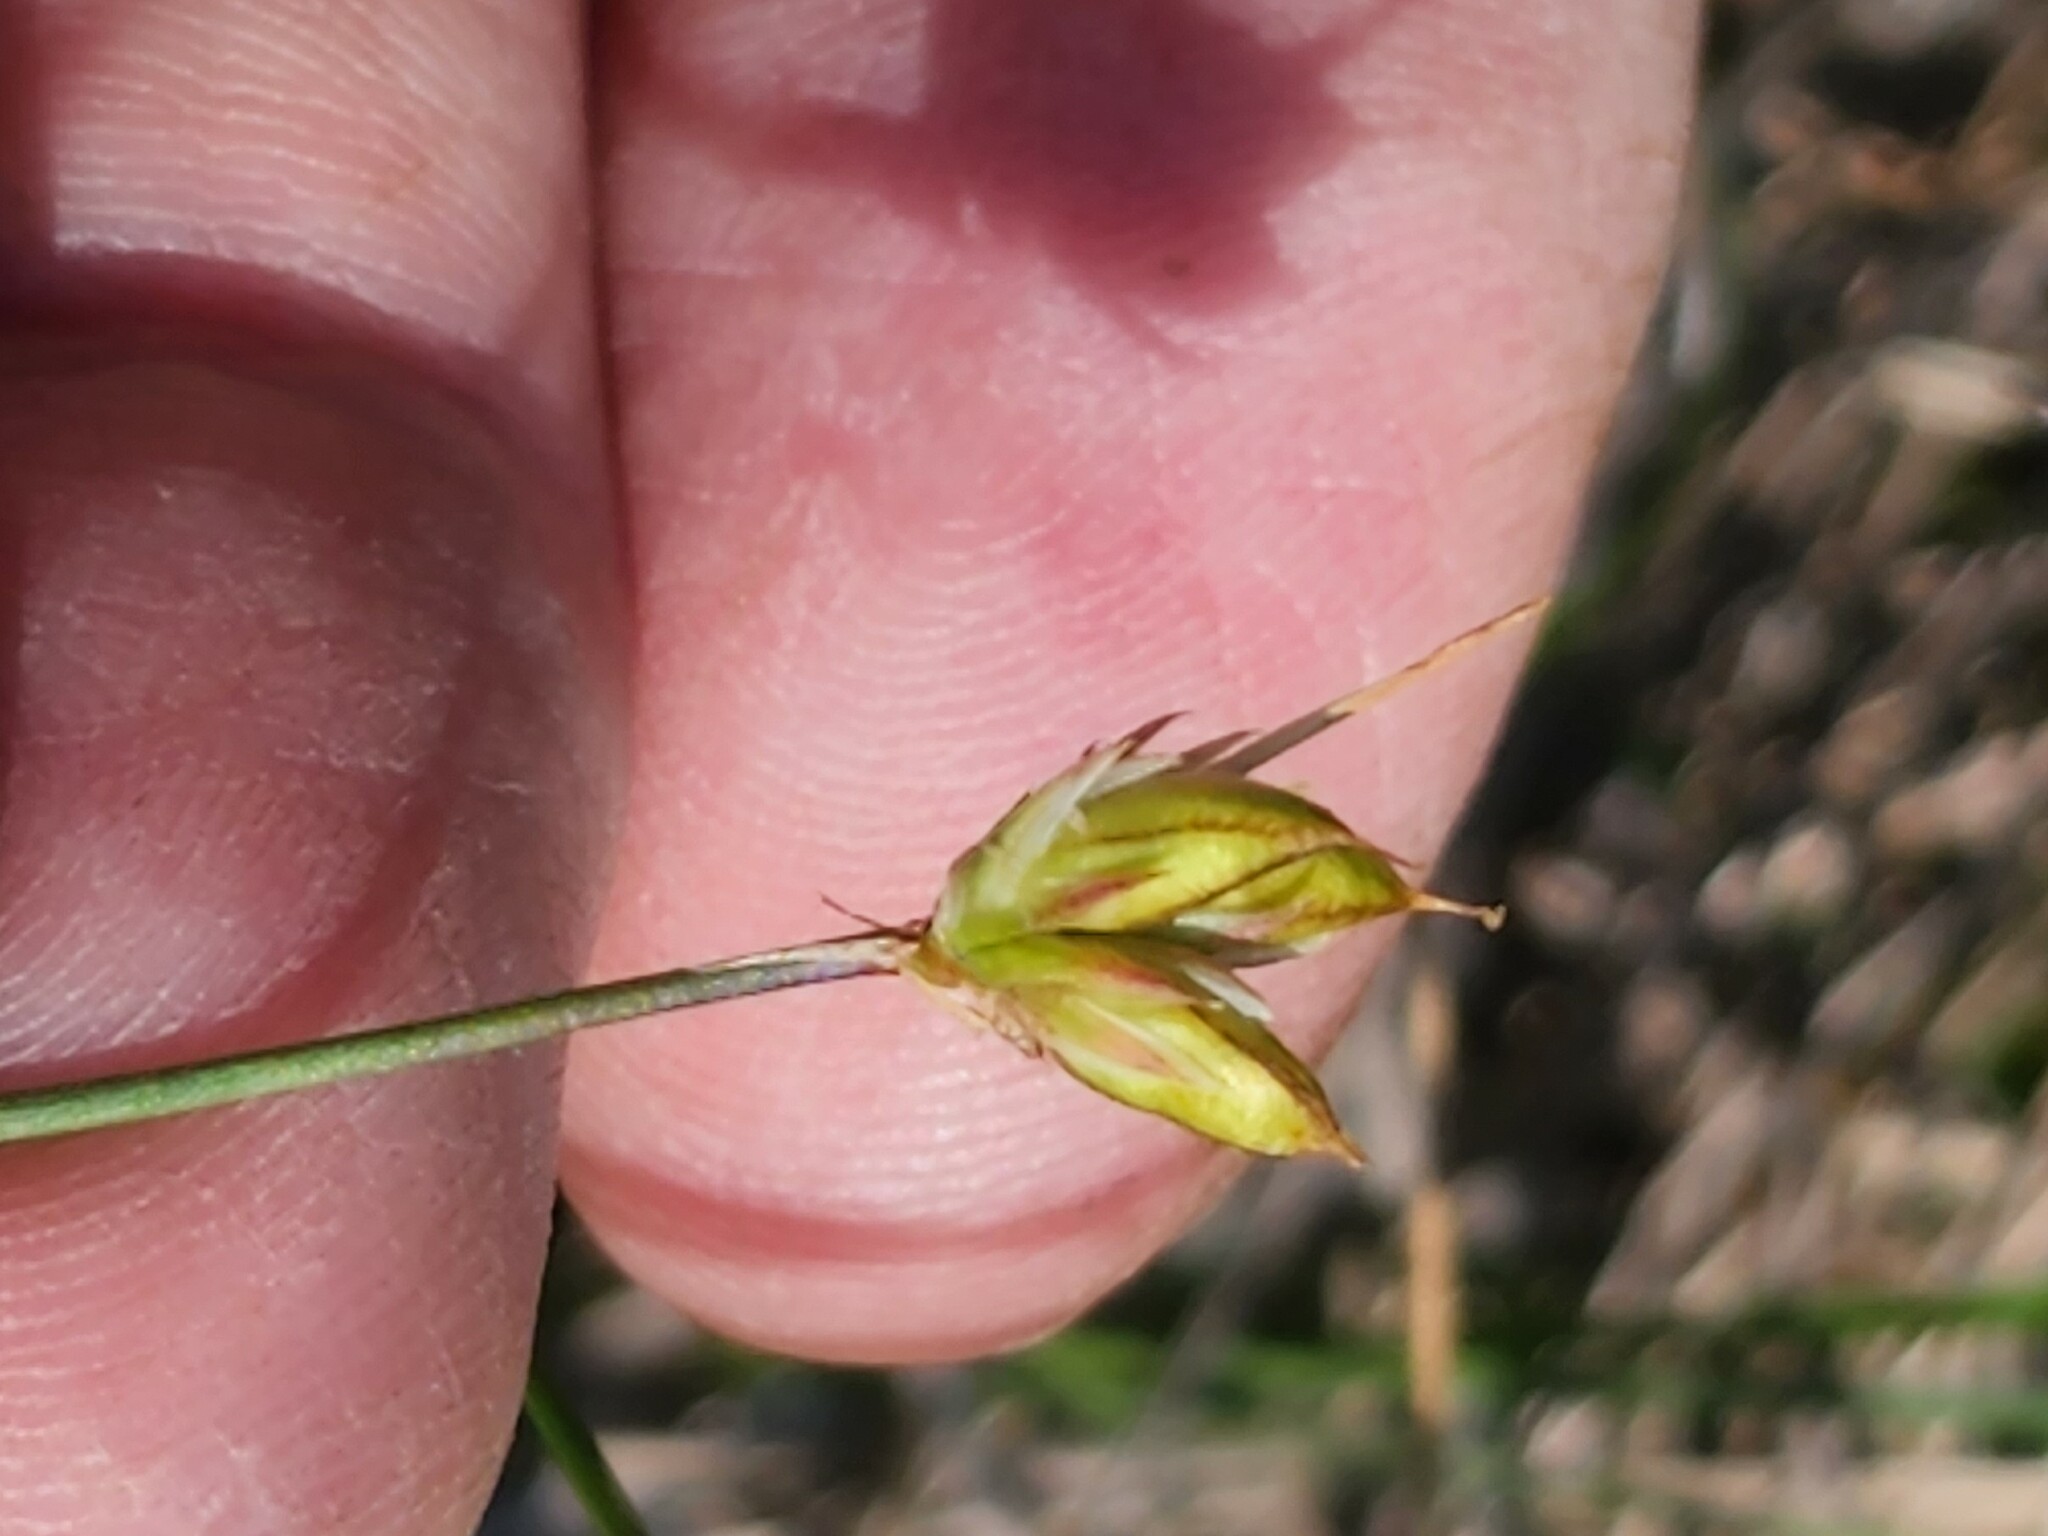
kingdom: Plantae
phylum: Tracheophyta
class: Liliopsida
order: Poales
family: Juncaceae
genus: Juncus
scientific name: Juncus stygius
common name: Bog rush
